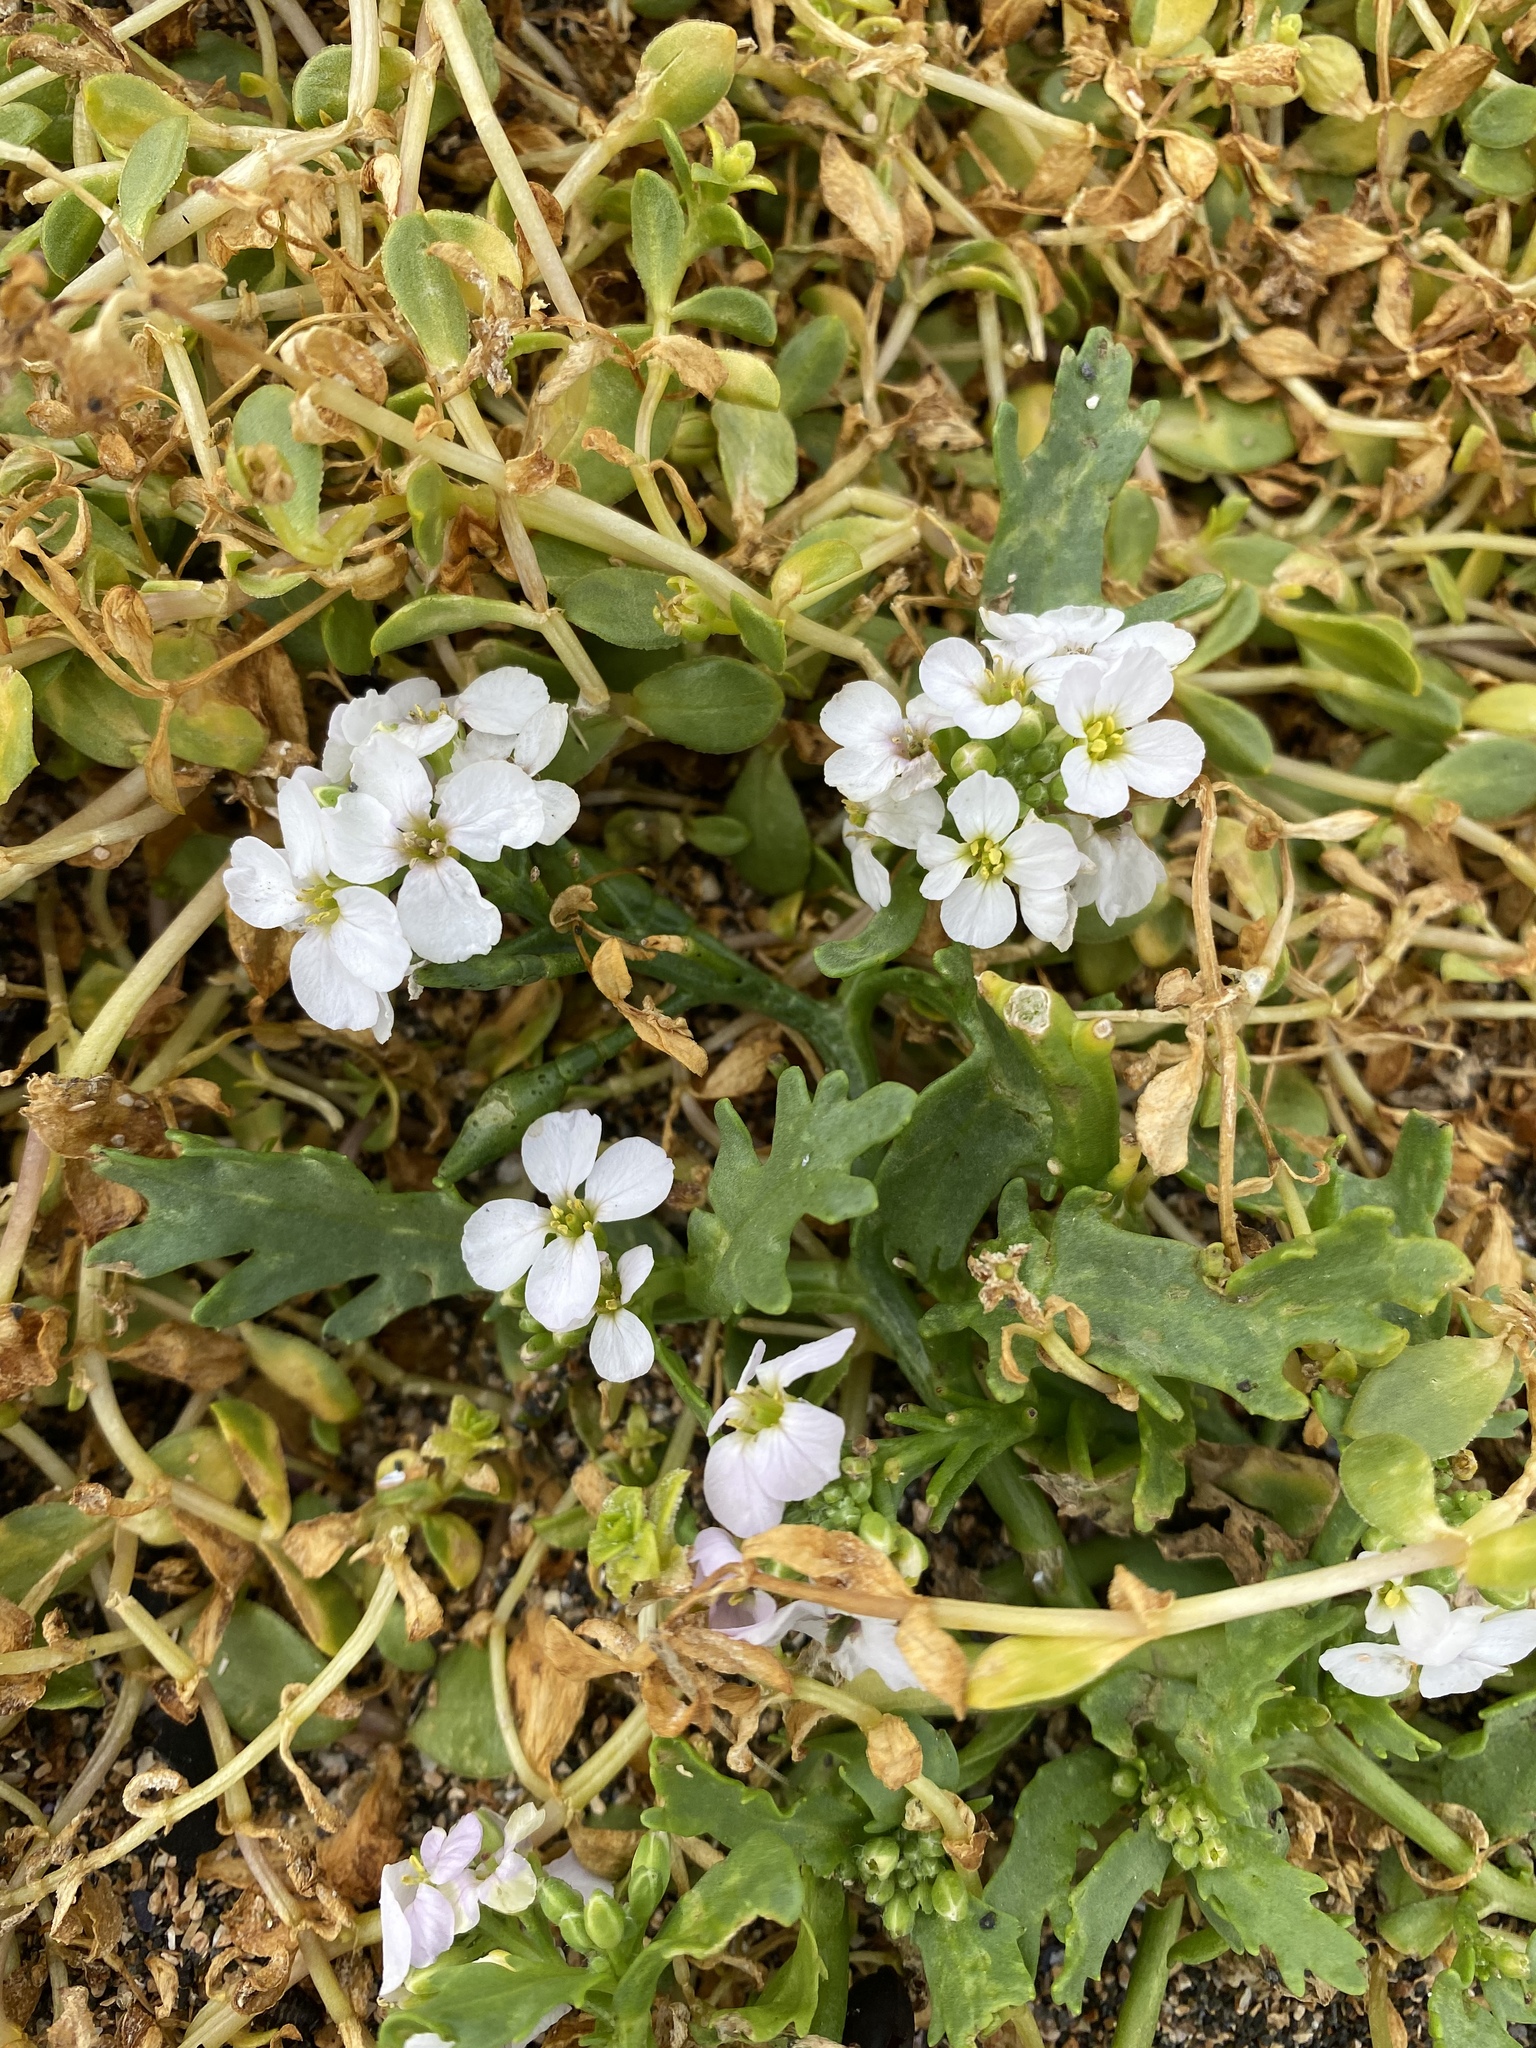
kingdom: Plantae
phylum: Tracheophyta
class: Magnoliopsida
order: Brassicales
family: Brassicaceae
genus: Cakile
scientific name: Cakile arctica
